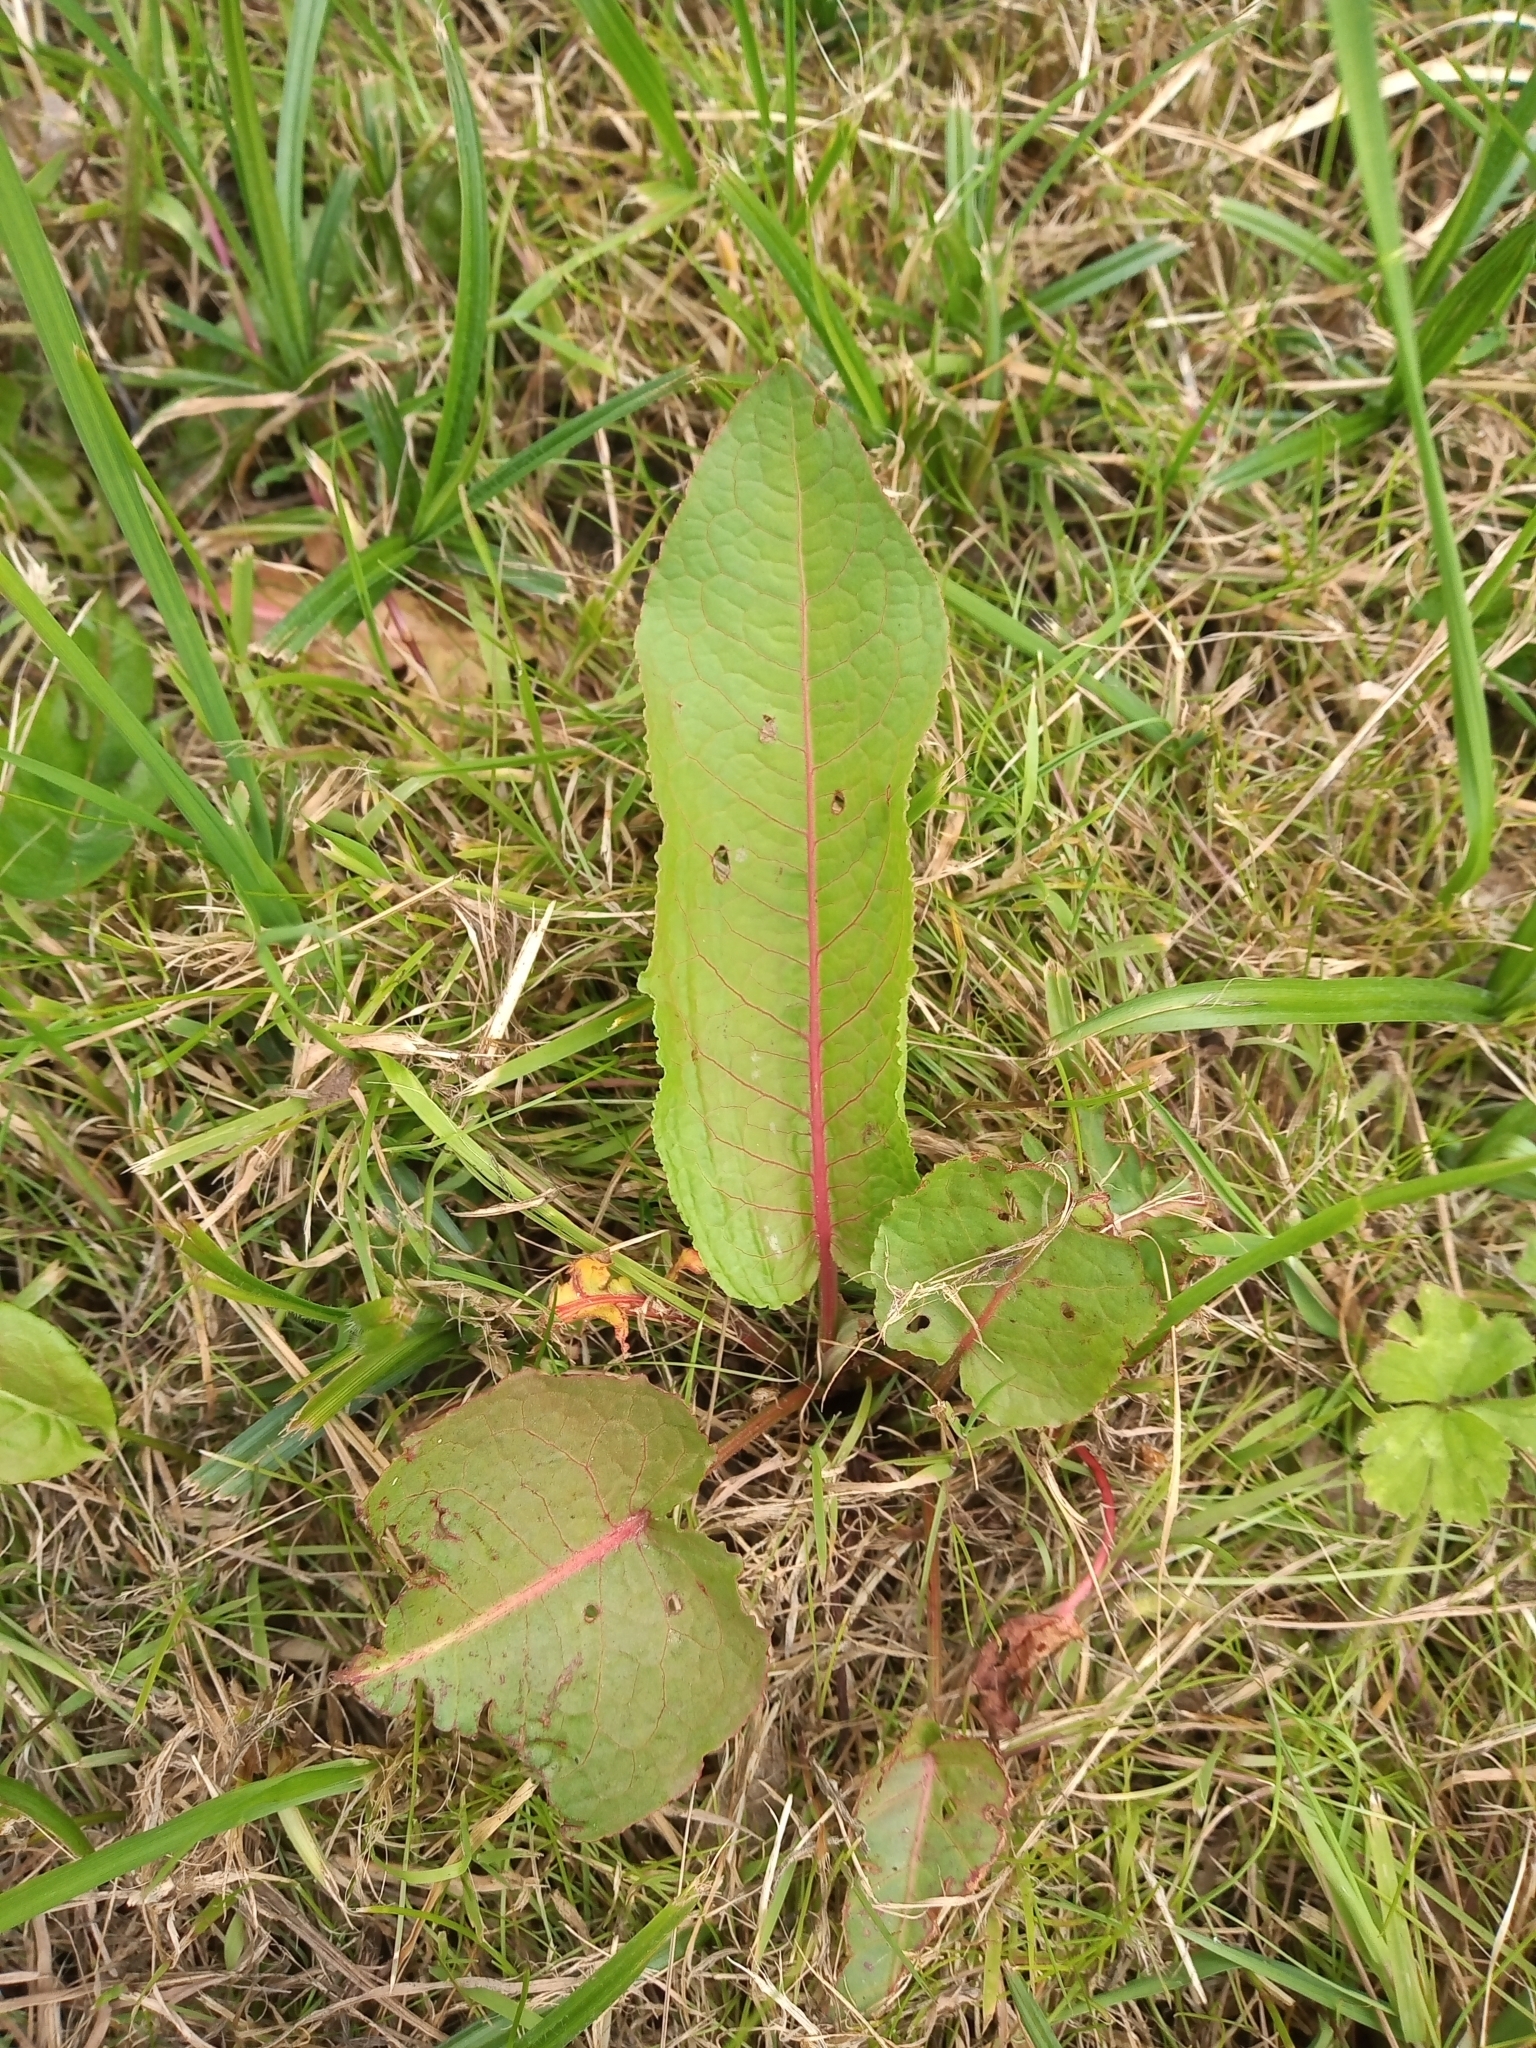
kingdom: Plantae
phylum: Tracheophyta
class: Magnoliopsida
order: Caryophyllales
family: Polygonaceae
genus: Rumex
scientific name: Rumex obtusifolius
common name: Bitter dock
